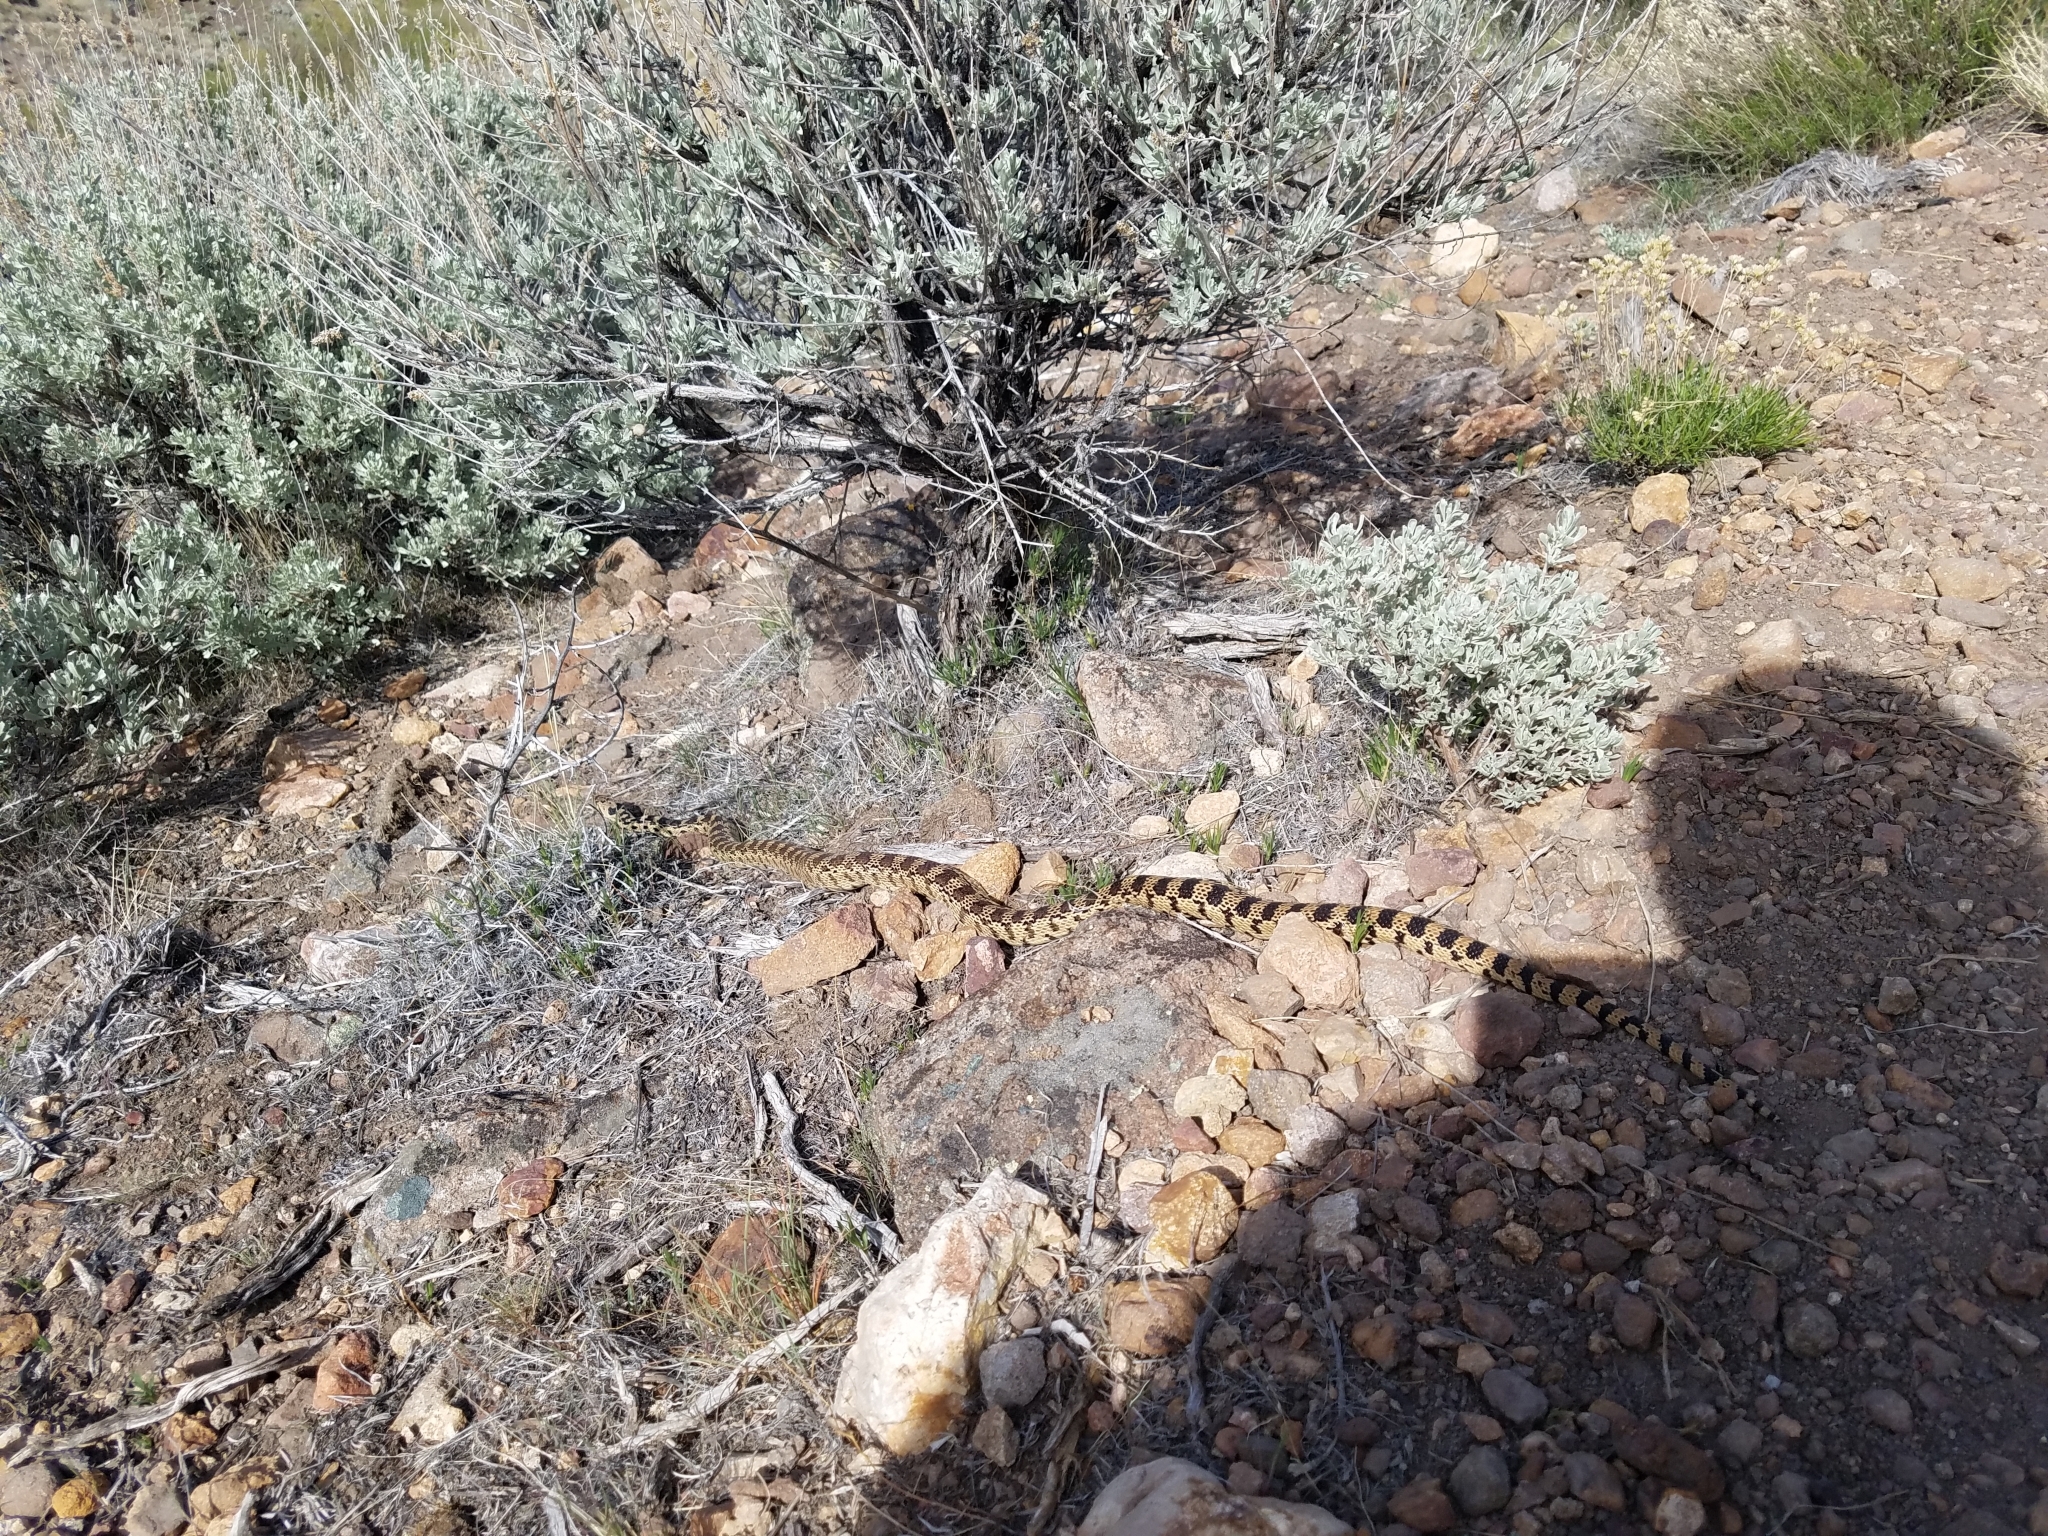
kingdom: Animalia
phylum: Chordata
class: Squamata
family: Colubridae
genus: Pituophis
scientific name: Pituophis catenifer
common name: Gopher snake
